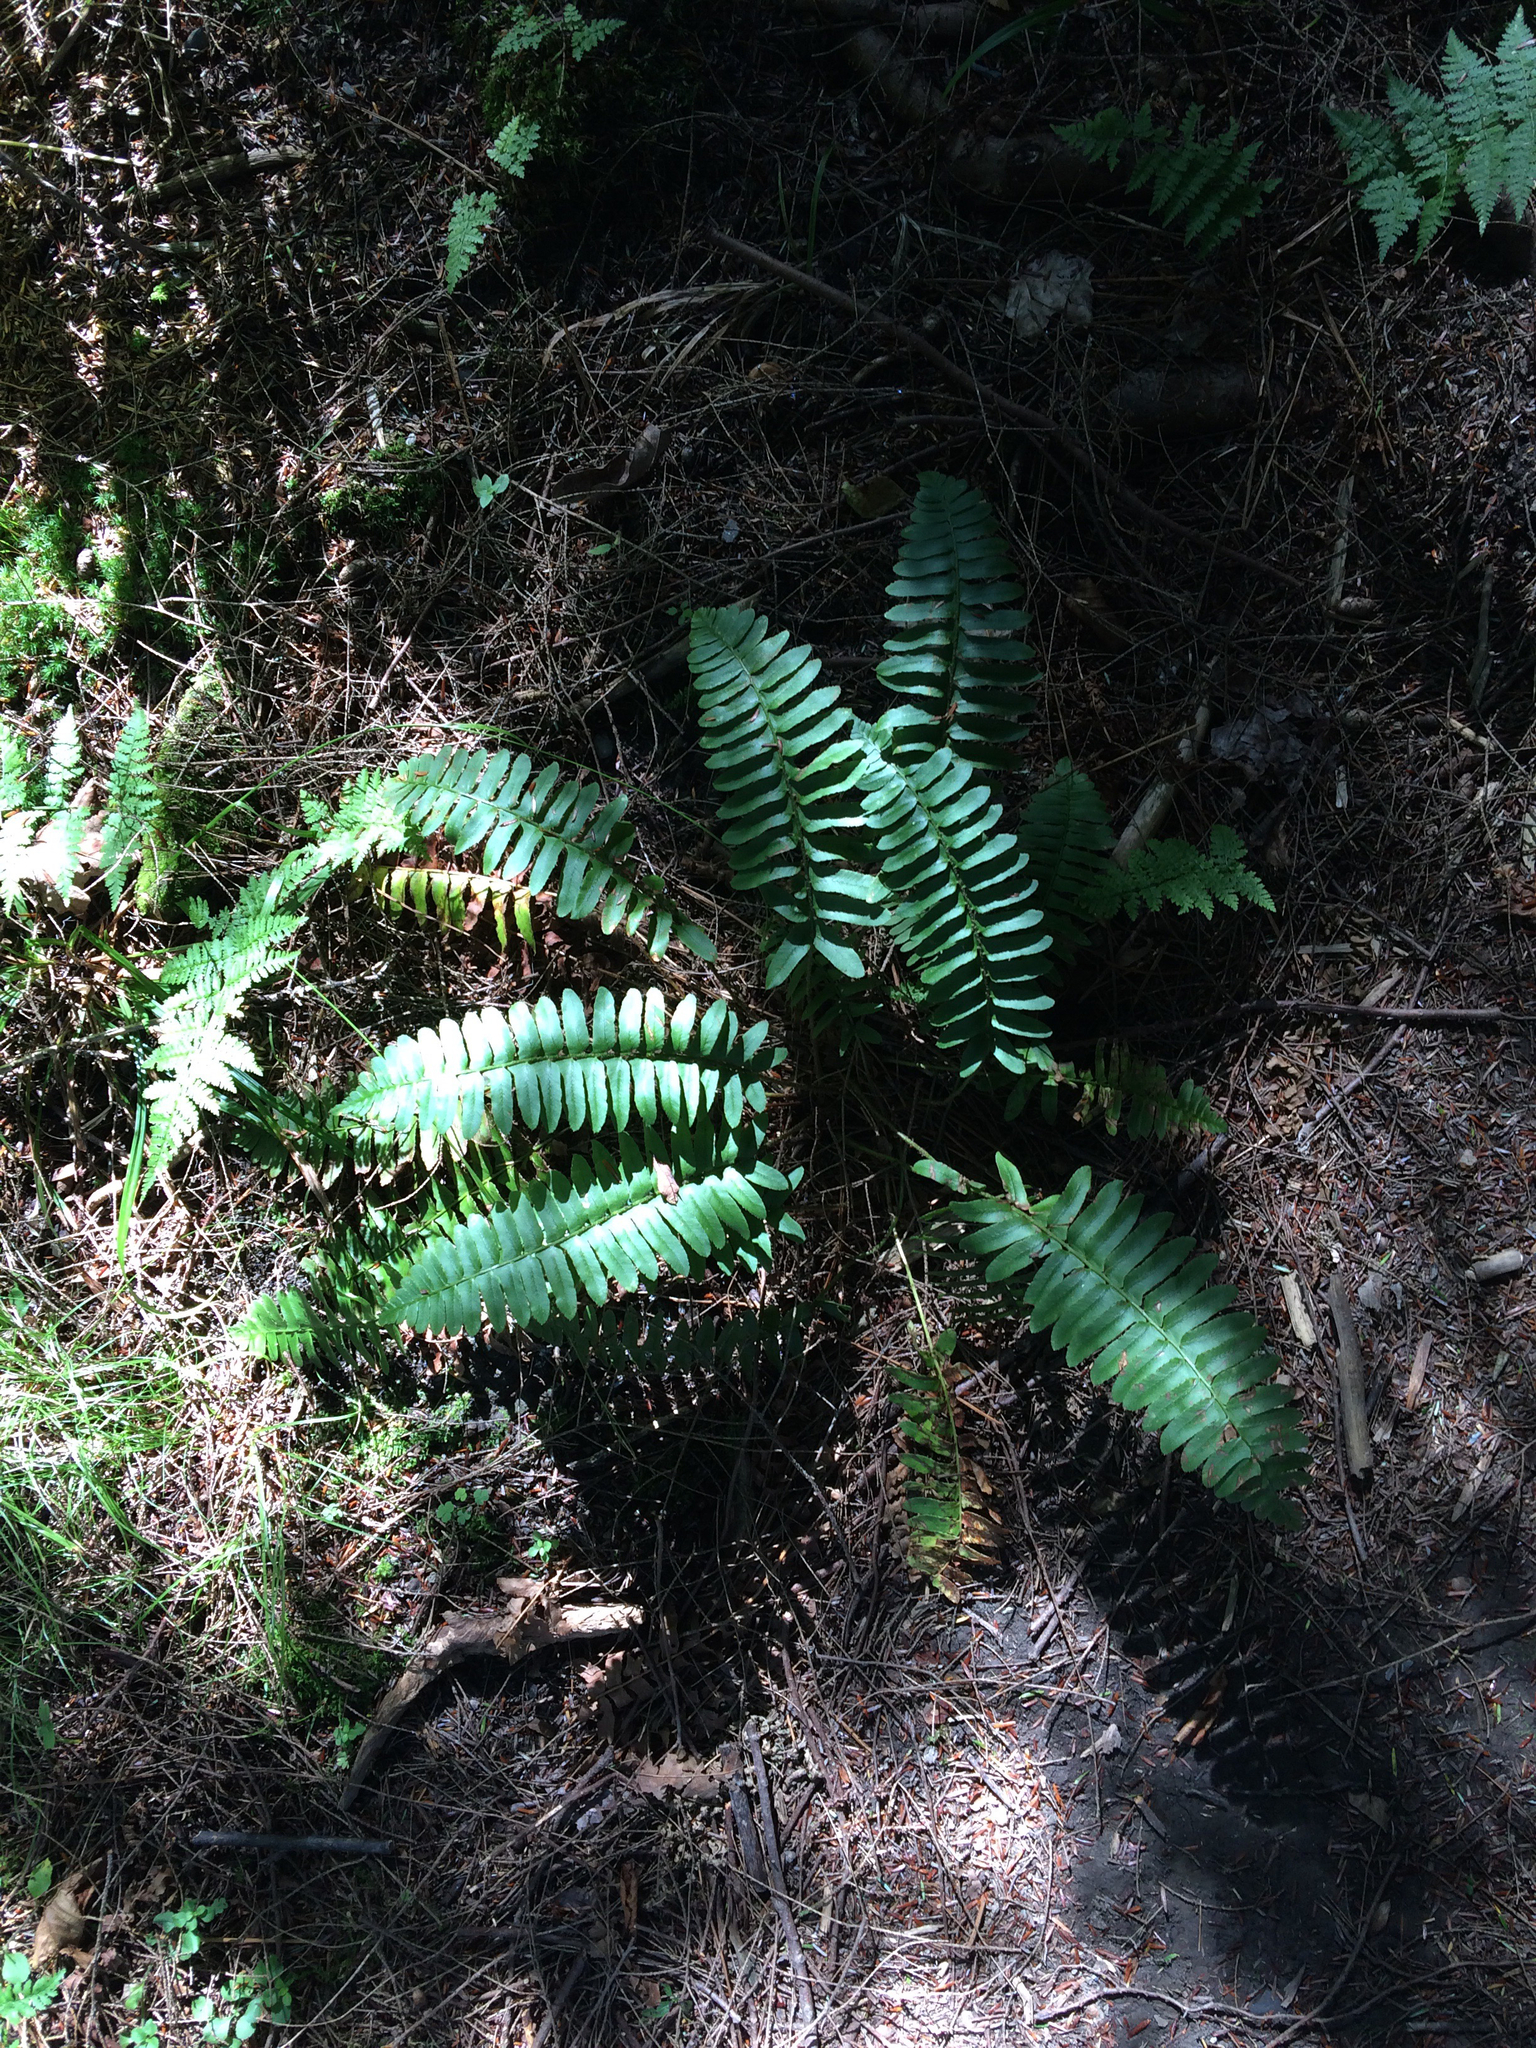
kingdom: Plantae
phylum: Tracheophyta
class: Polypodiopsida
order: Polypodiales
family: Dryopteridaceae
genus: Polystichum
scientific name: Polystichum acrostichoides
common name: Christmas fern
